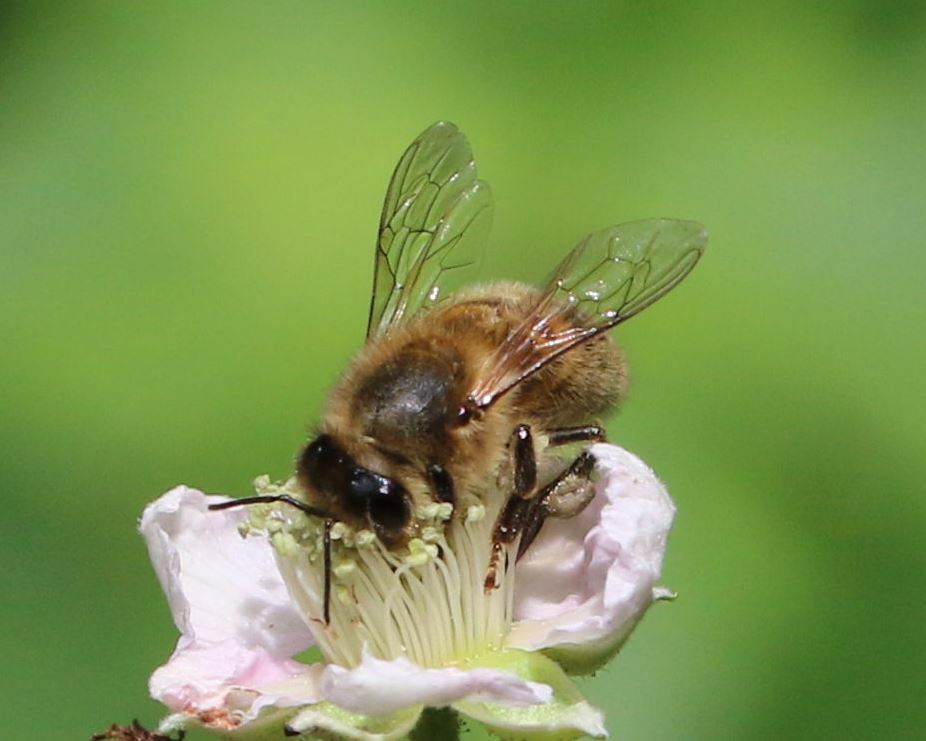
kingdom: Animalia
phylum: Arthropoda
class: Insecta
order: Hymenoptera
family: Apidae
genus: Apis
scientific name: Apis mellifera
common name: Honey bee
